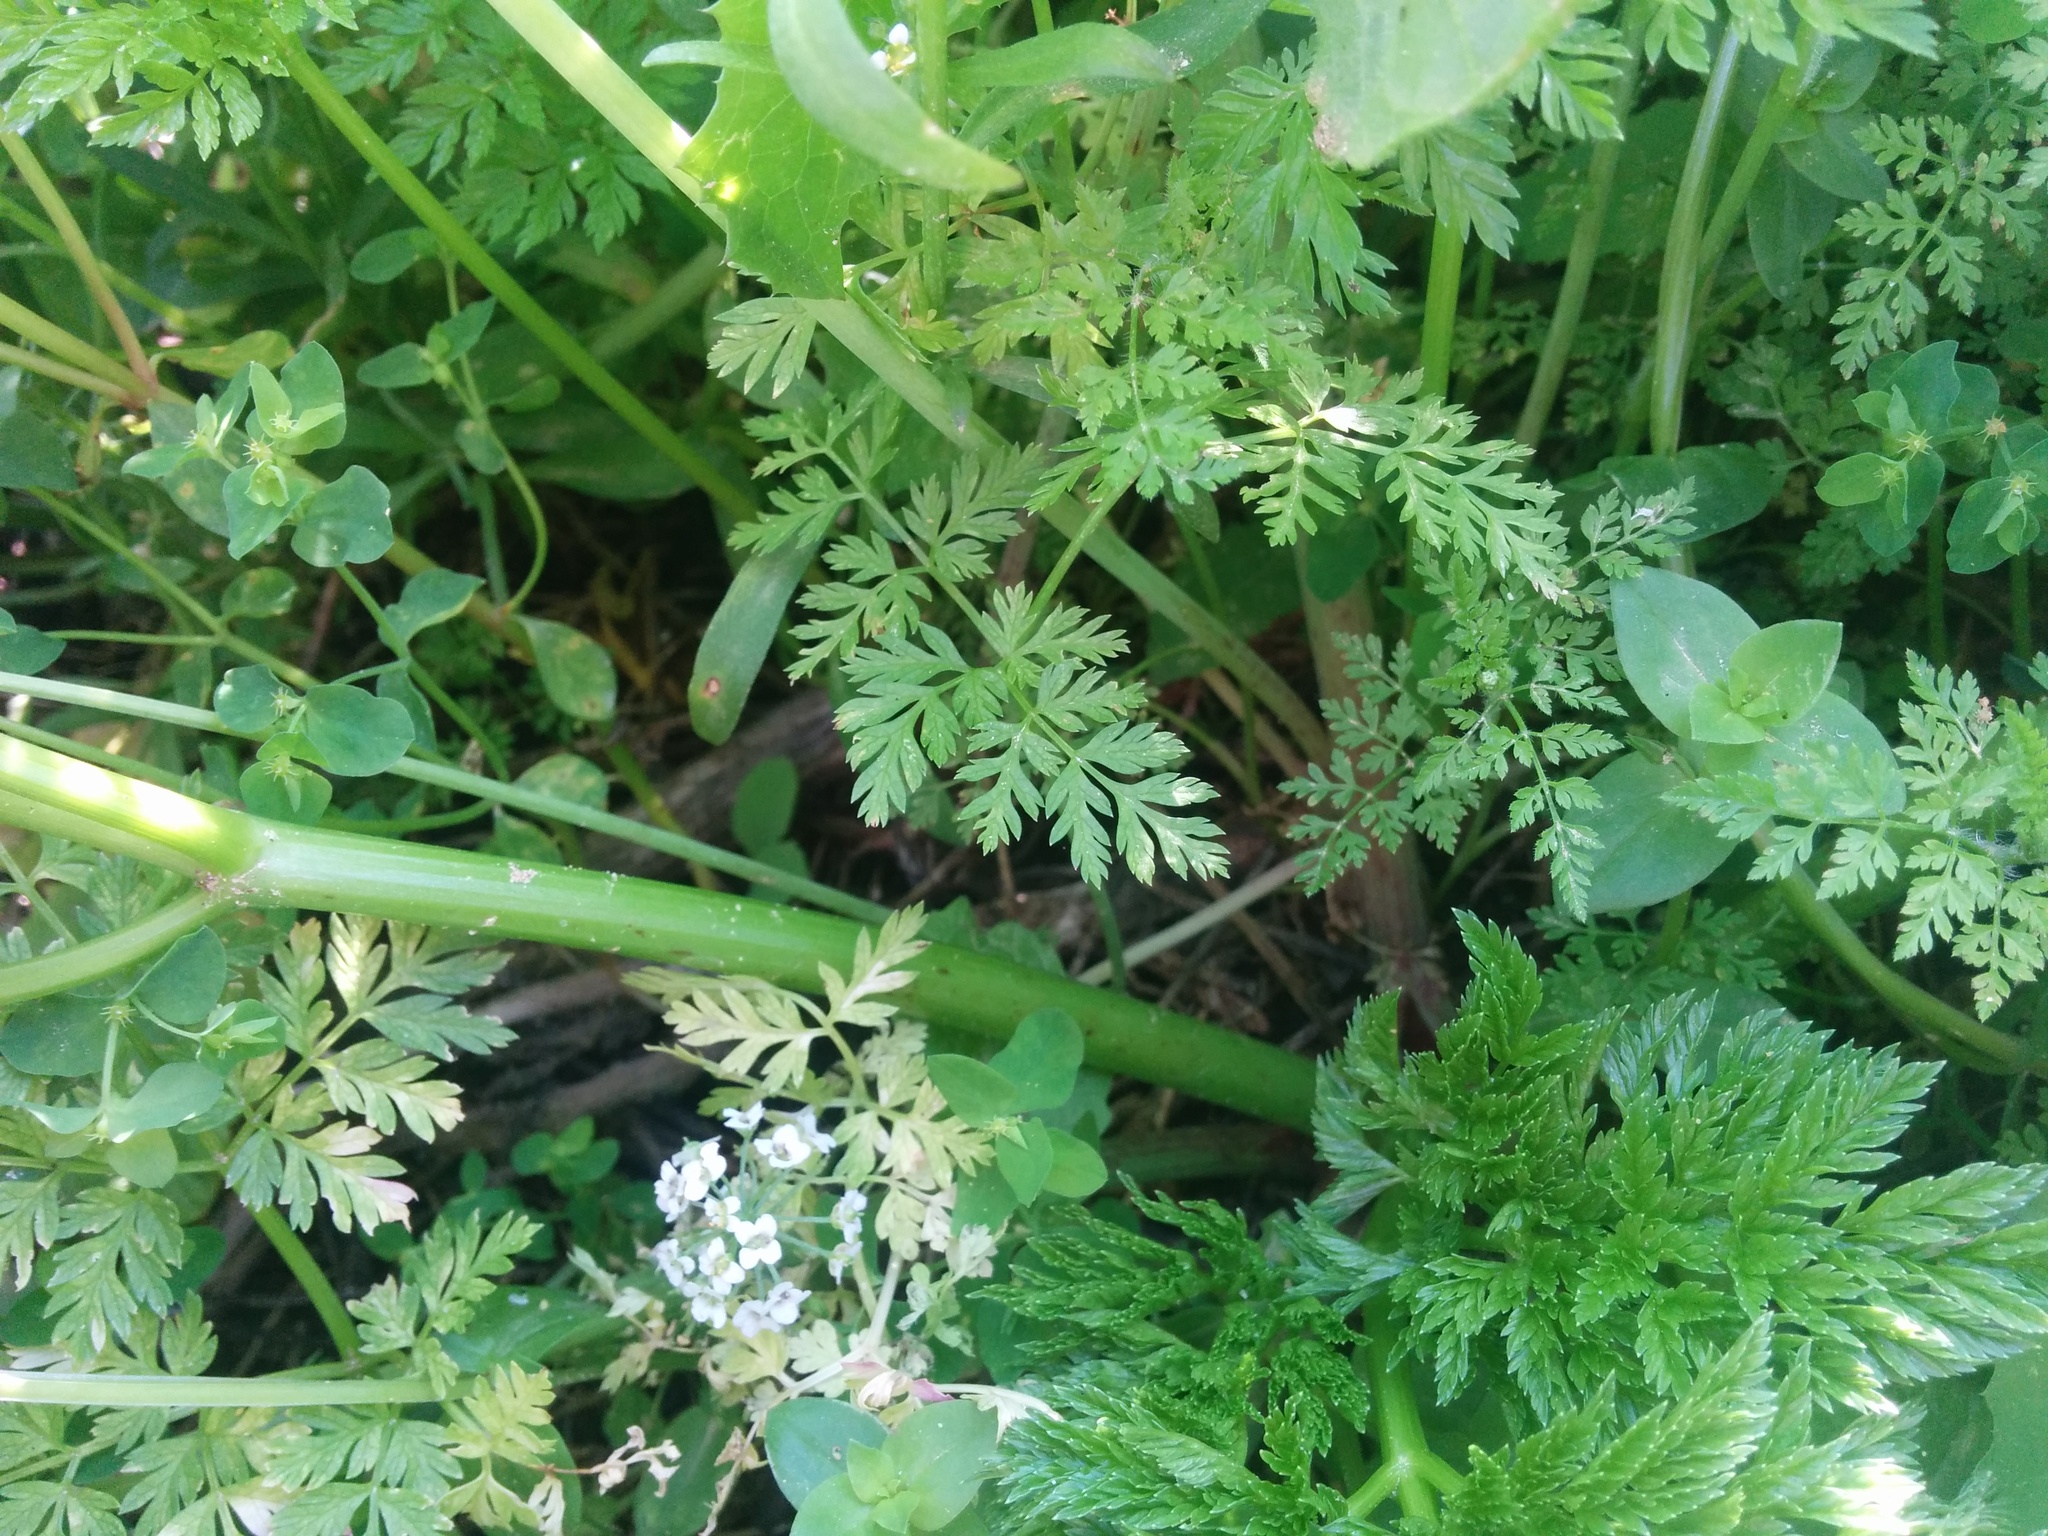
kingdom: Plantae
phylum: Tracheophyta
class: Magnoliopsida
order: Apiales
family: Apiaceae
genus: Conium
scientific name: Conium maculatum
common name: Hemlock
